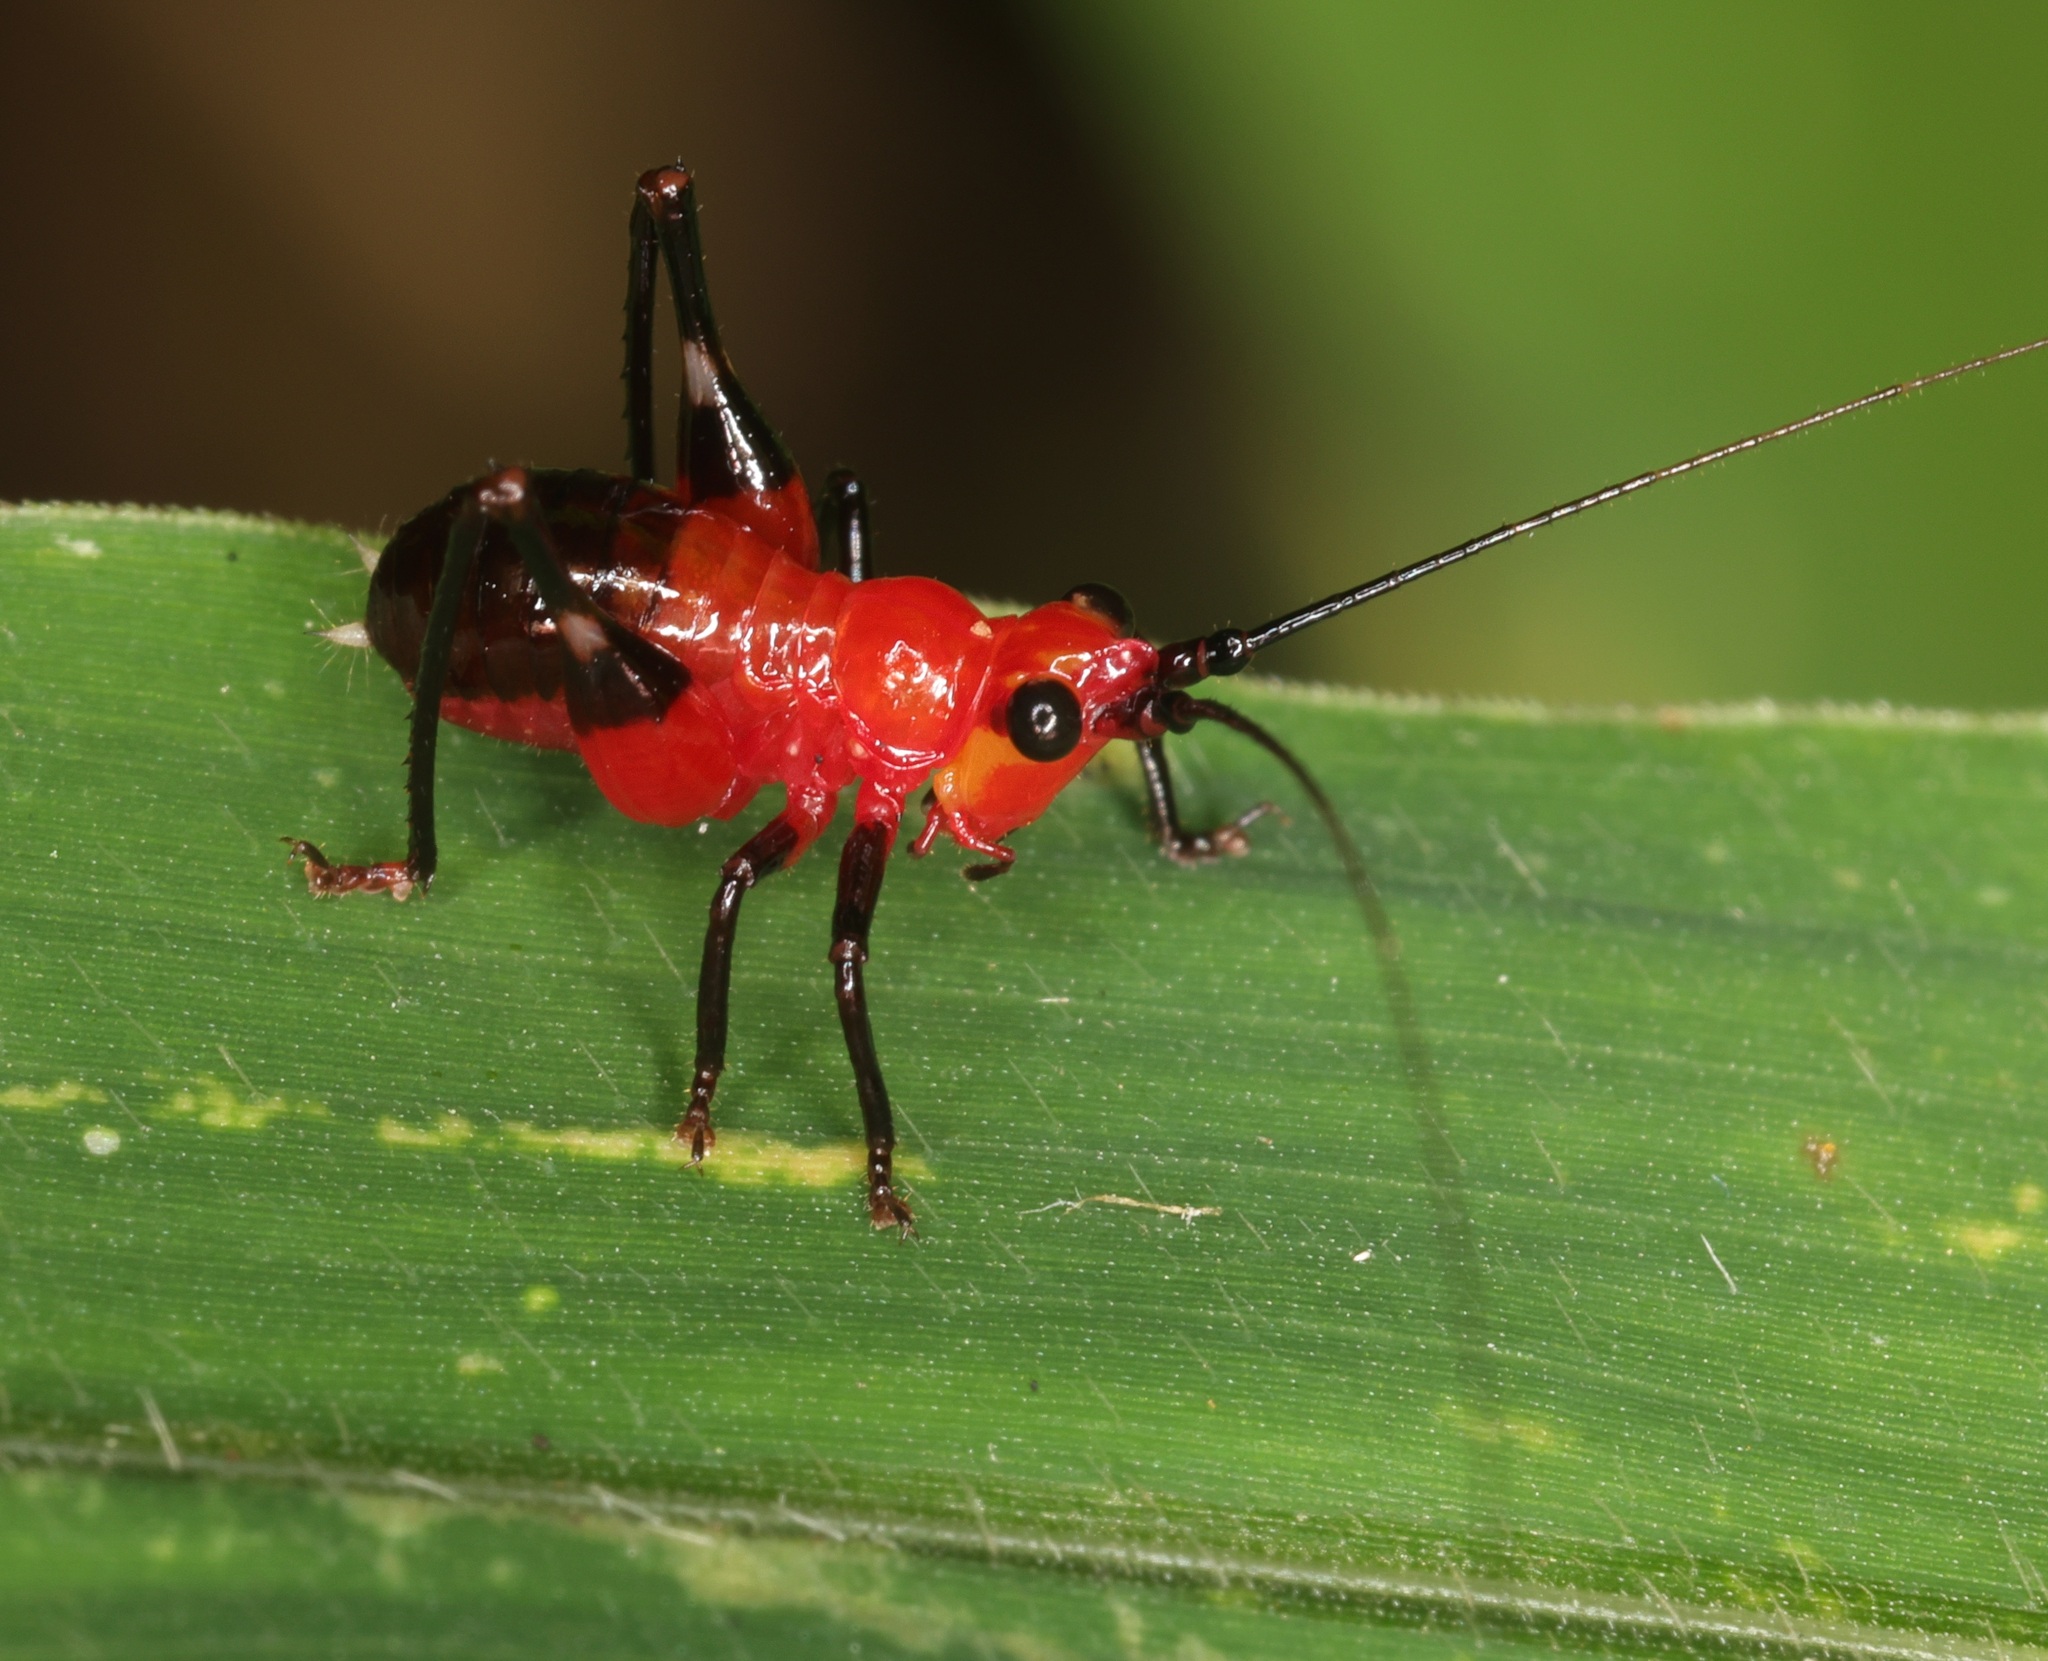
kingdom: Animalia
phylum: Arthropoda
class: Insecta
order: Orthoptera
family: Tettigoniidae
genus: Conocephalus
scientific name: Conocephalus melaenus
